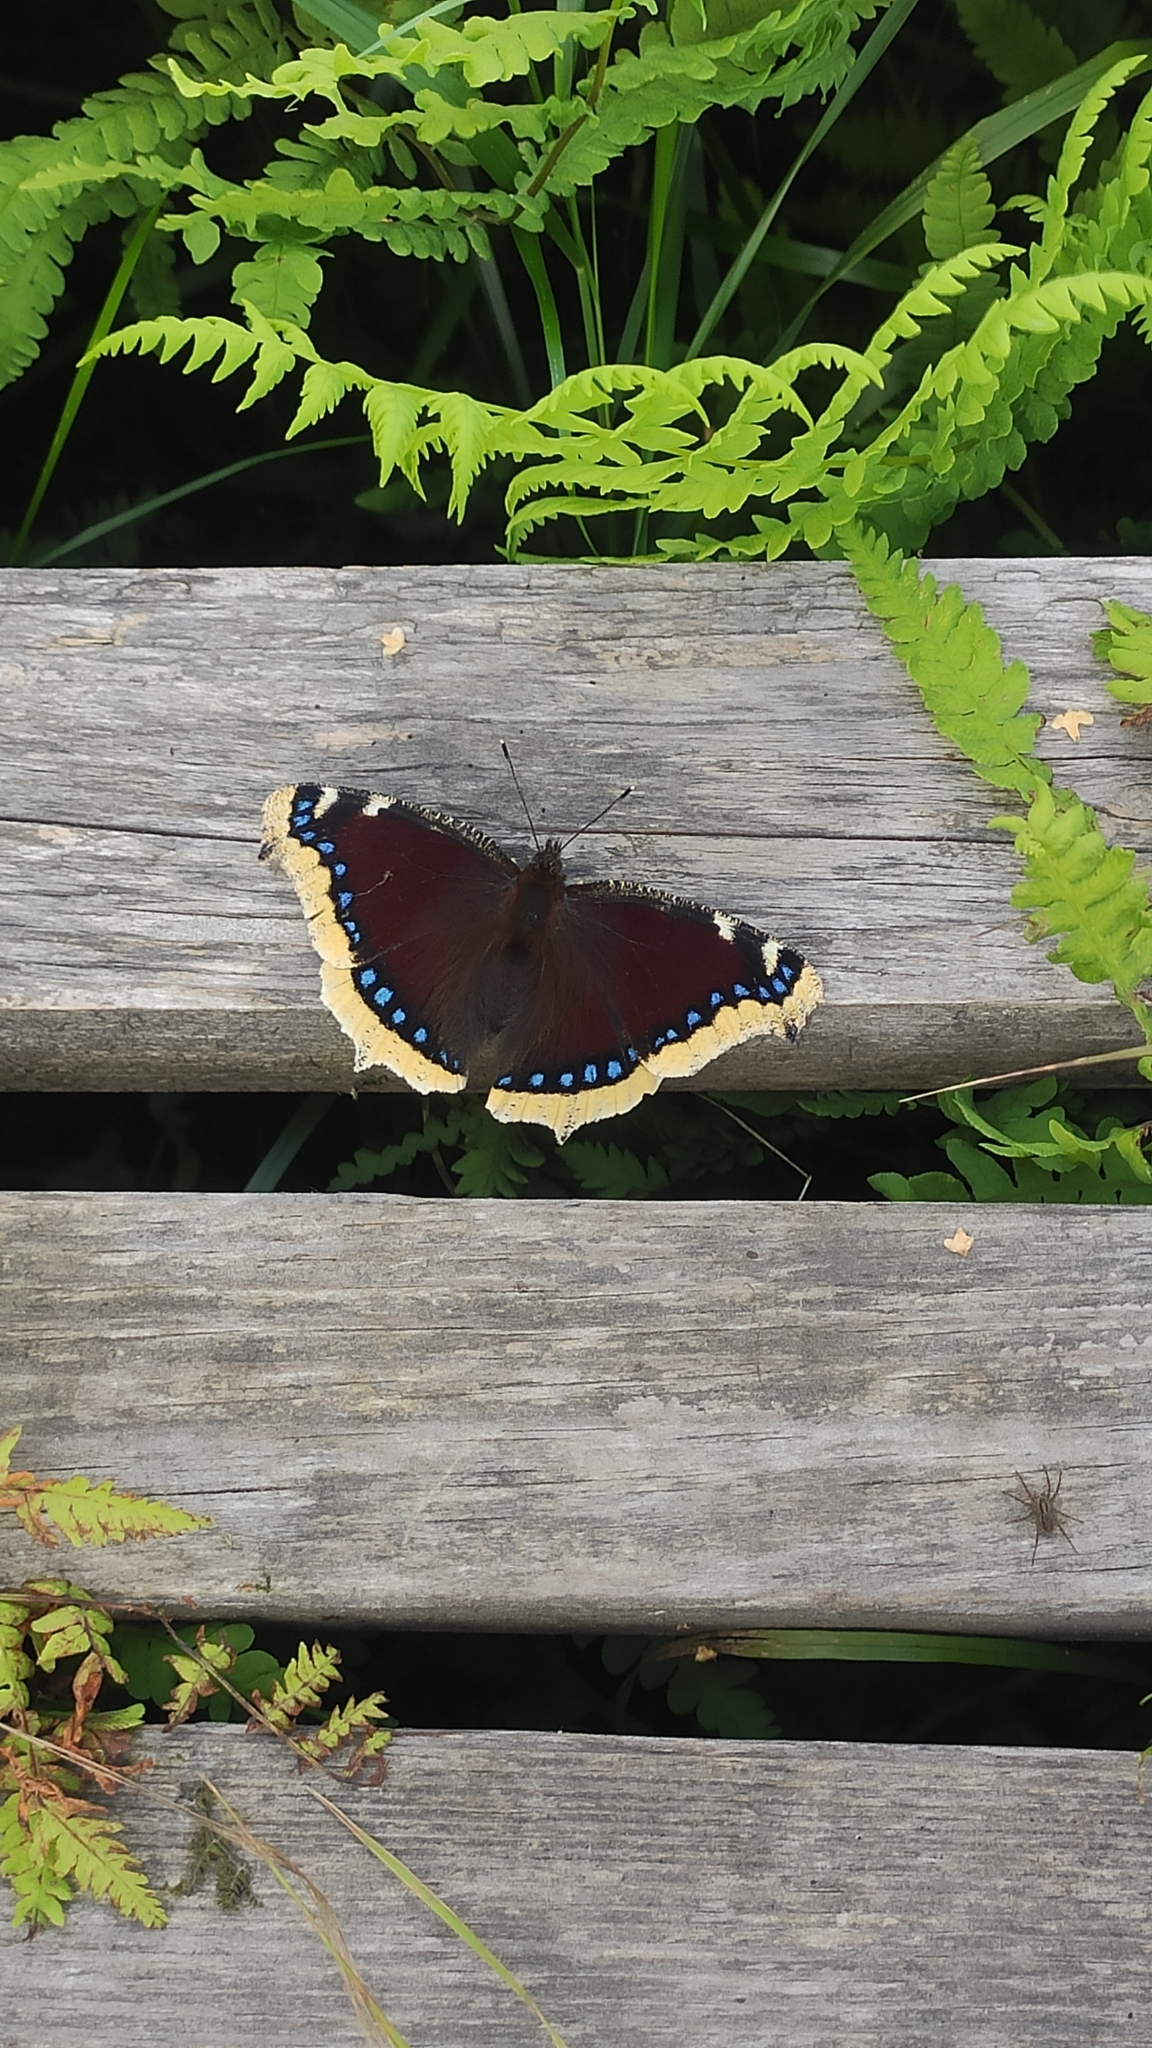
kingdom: Animalia
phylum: Arthropoda
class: Insecta
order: Lepidoptera
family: Nymphalidae
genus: Nymphalis
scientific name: Nymphalis antiopa
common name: Camberwell beauty
